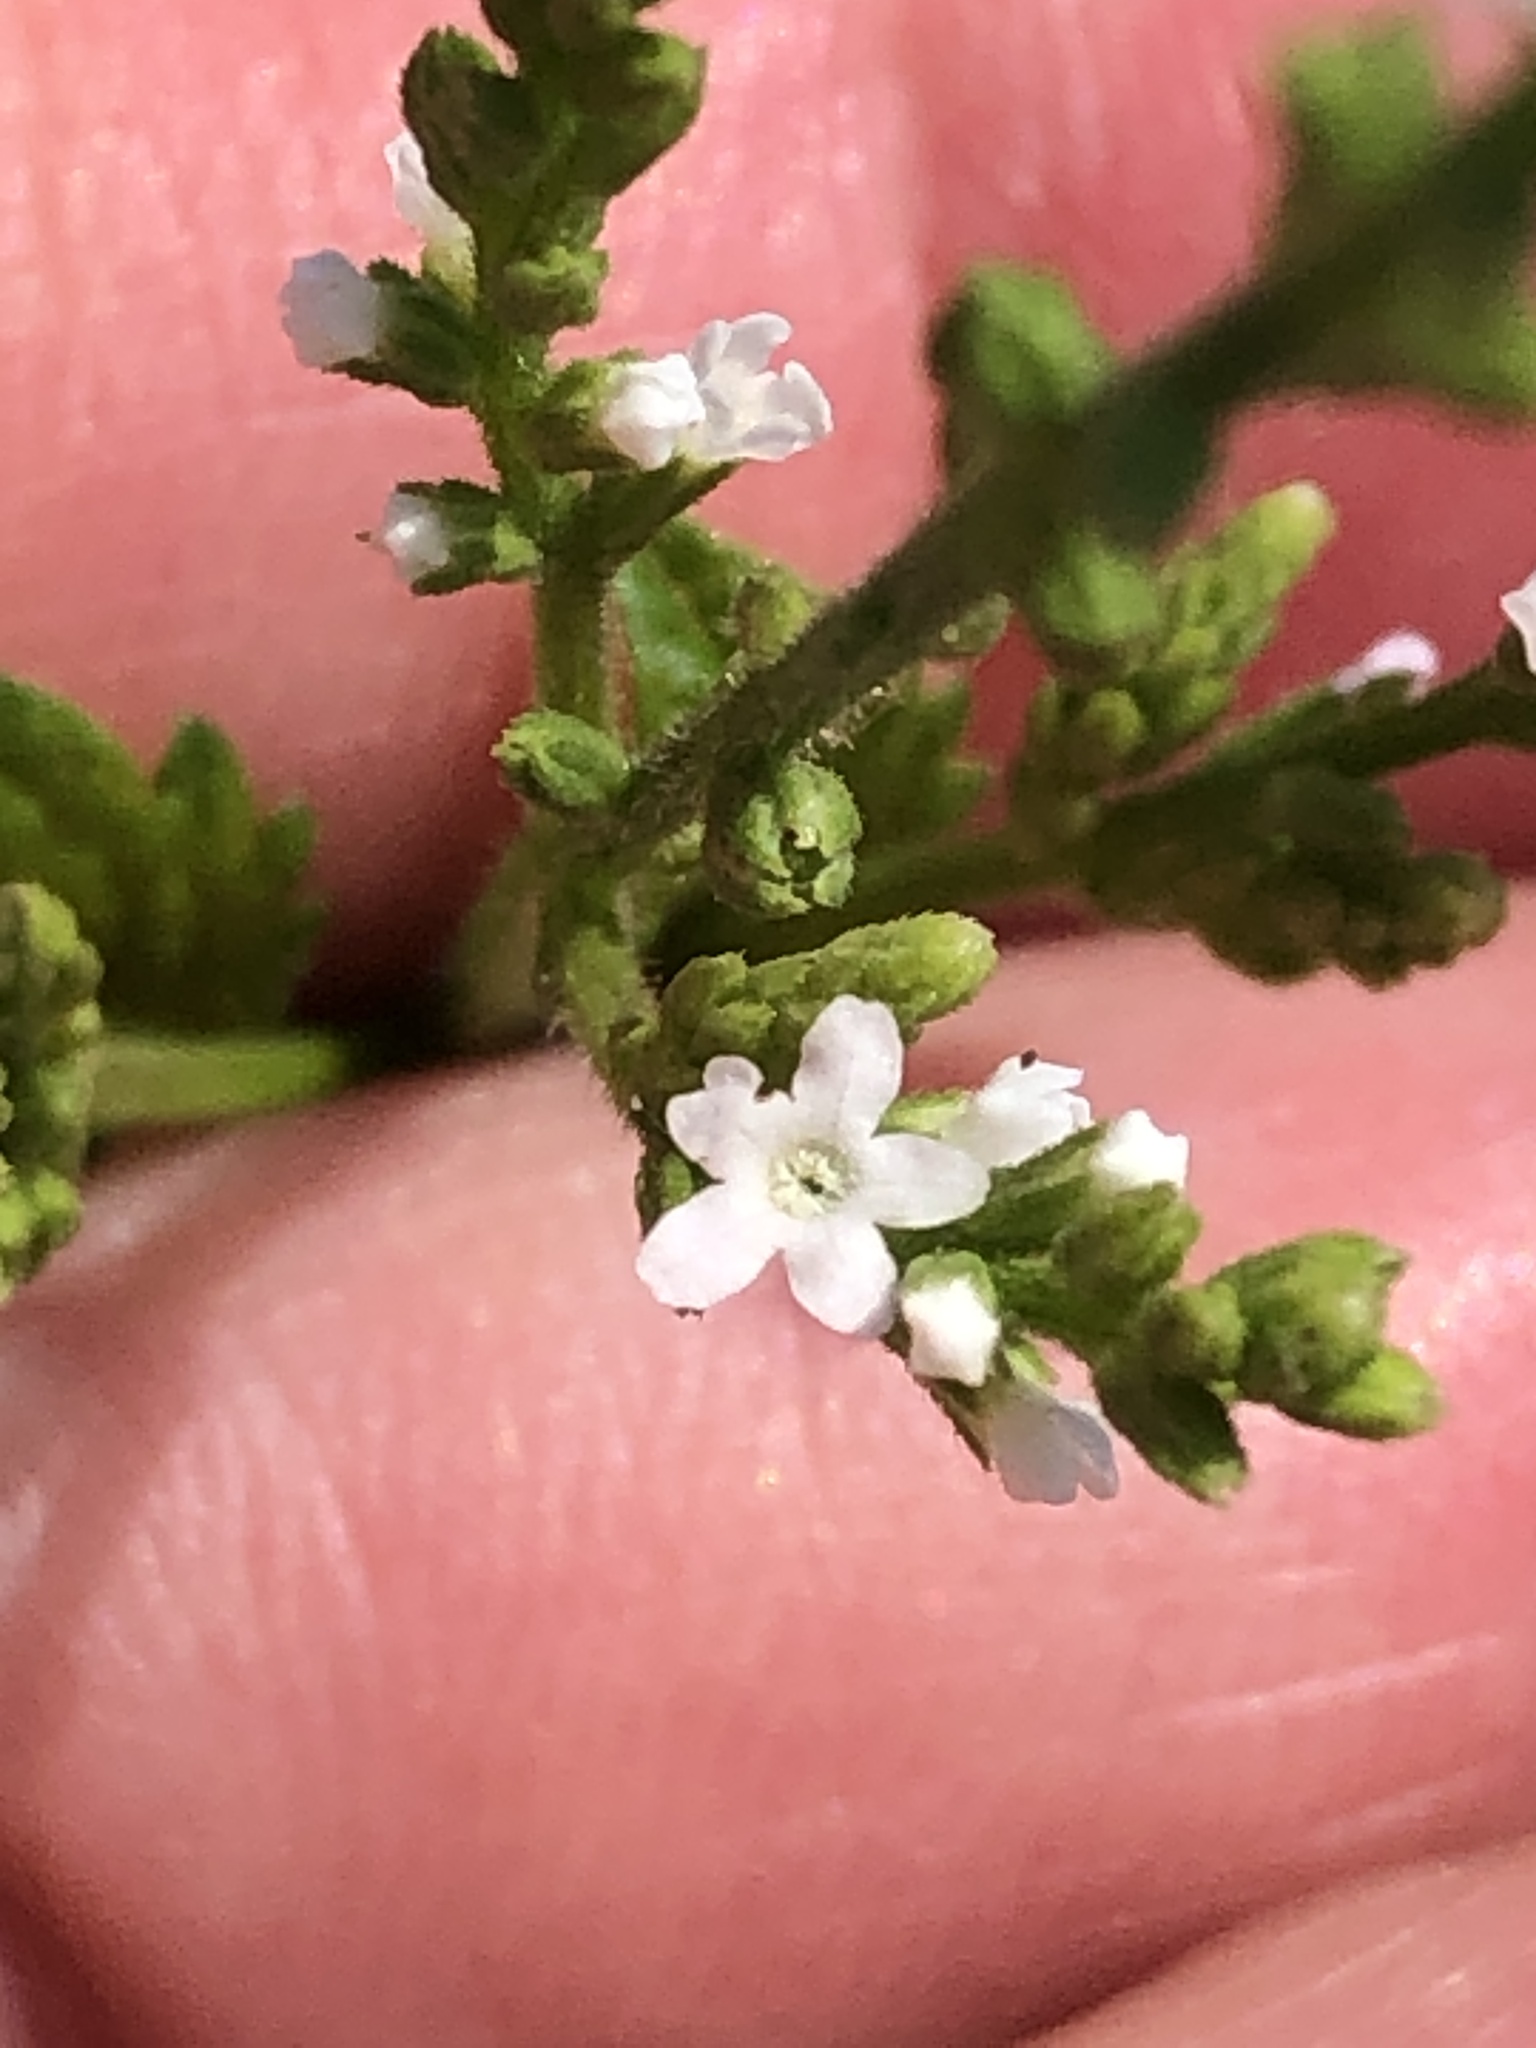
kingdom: Plantae
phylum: Tracheophyta
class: Magnoliopsida
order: Lamiales
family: Verbenaceae
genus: Verbena
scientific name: Verbena urticifolia
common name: Nettle-leaved vervain
